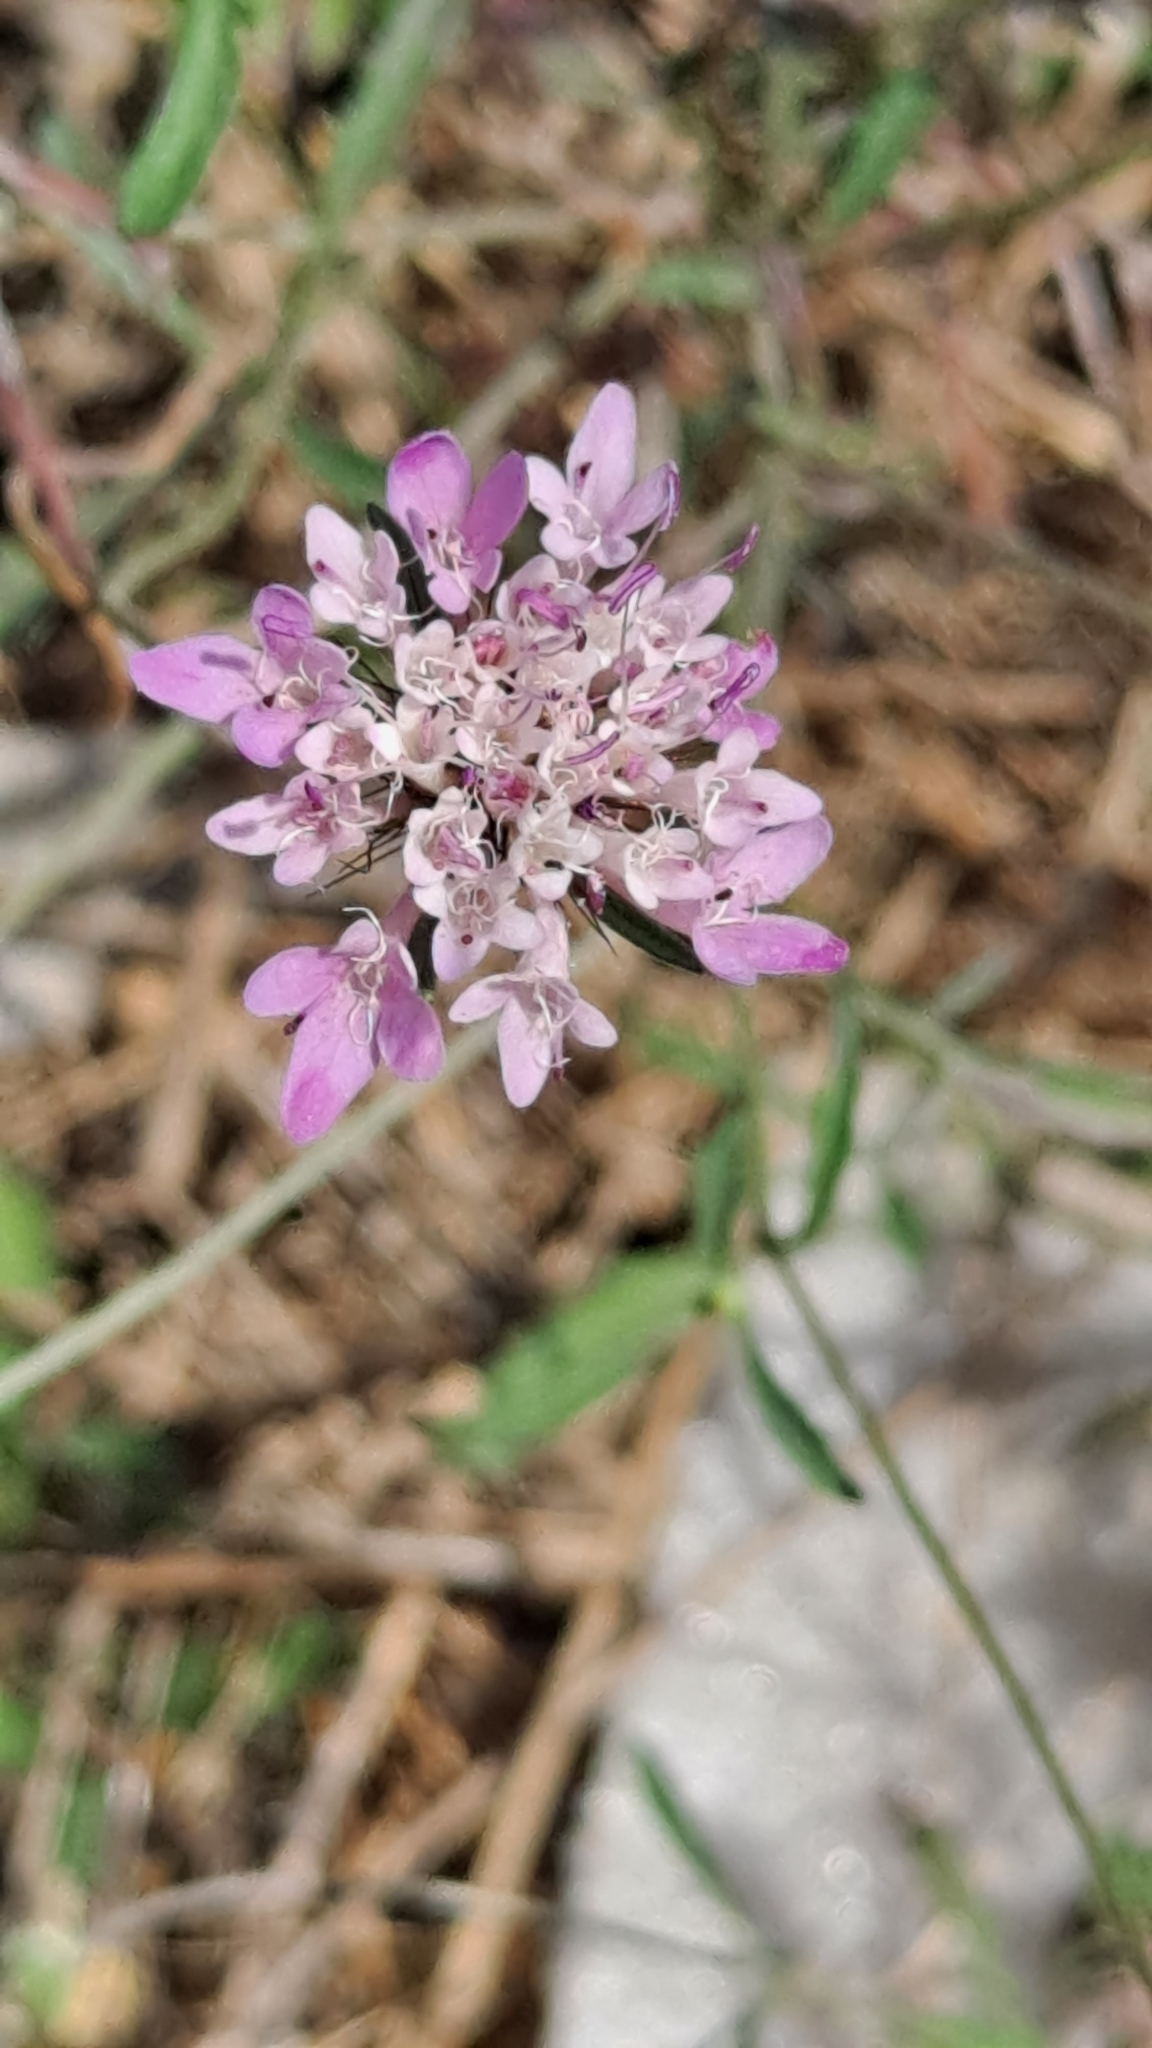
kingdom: Plantae
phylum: Tracheophyta
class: Magnoliopsida
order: Dipsacales
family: Caprifoliaceae
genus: Sixalix
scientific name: Sixalix atropurpurea
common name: Sweet scabious
